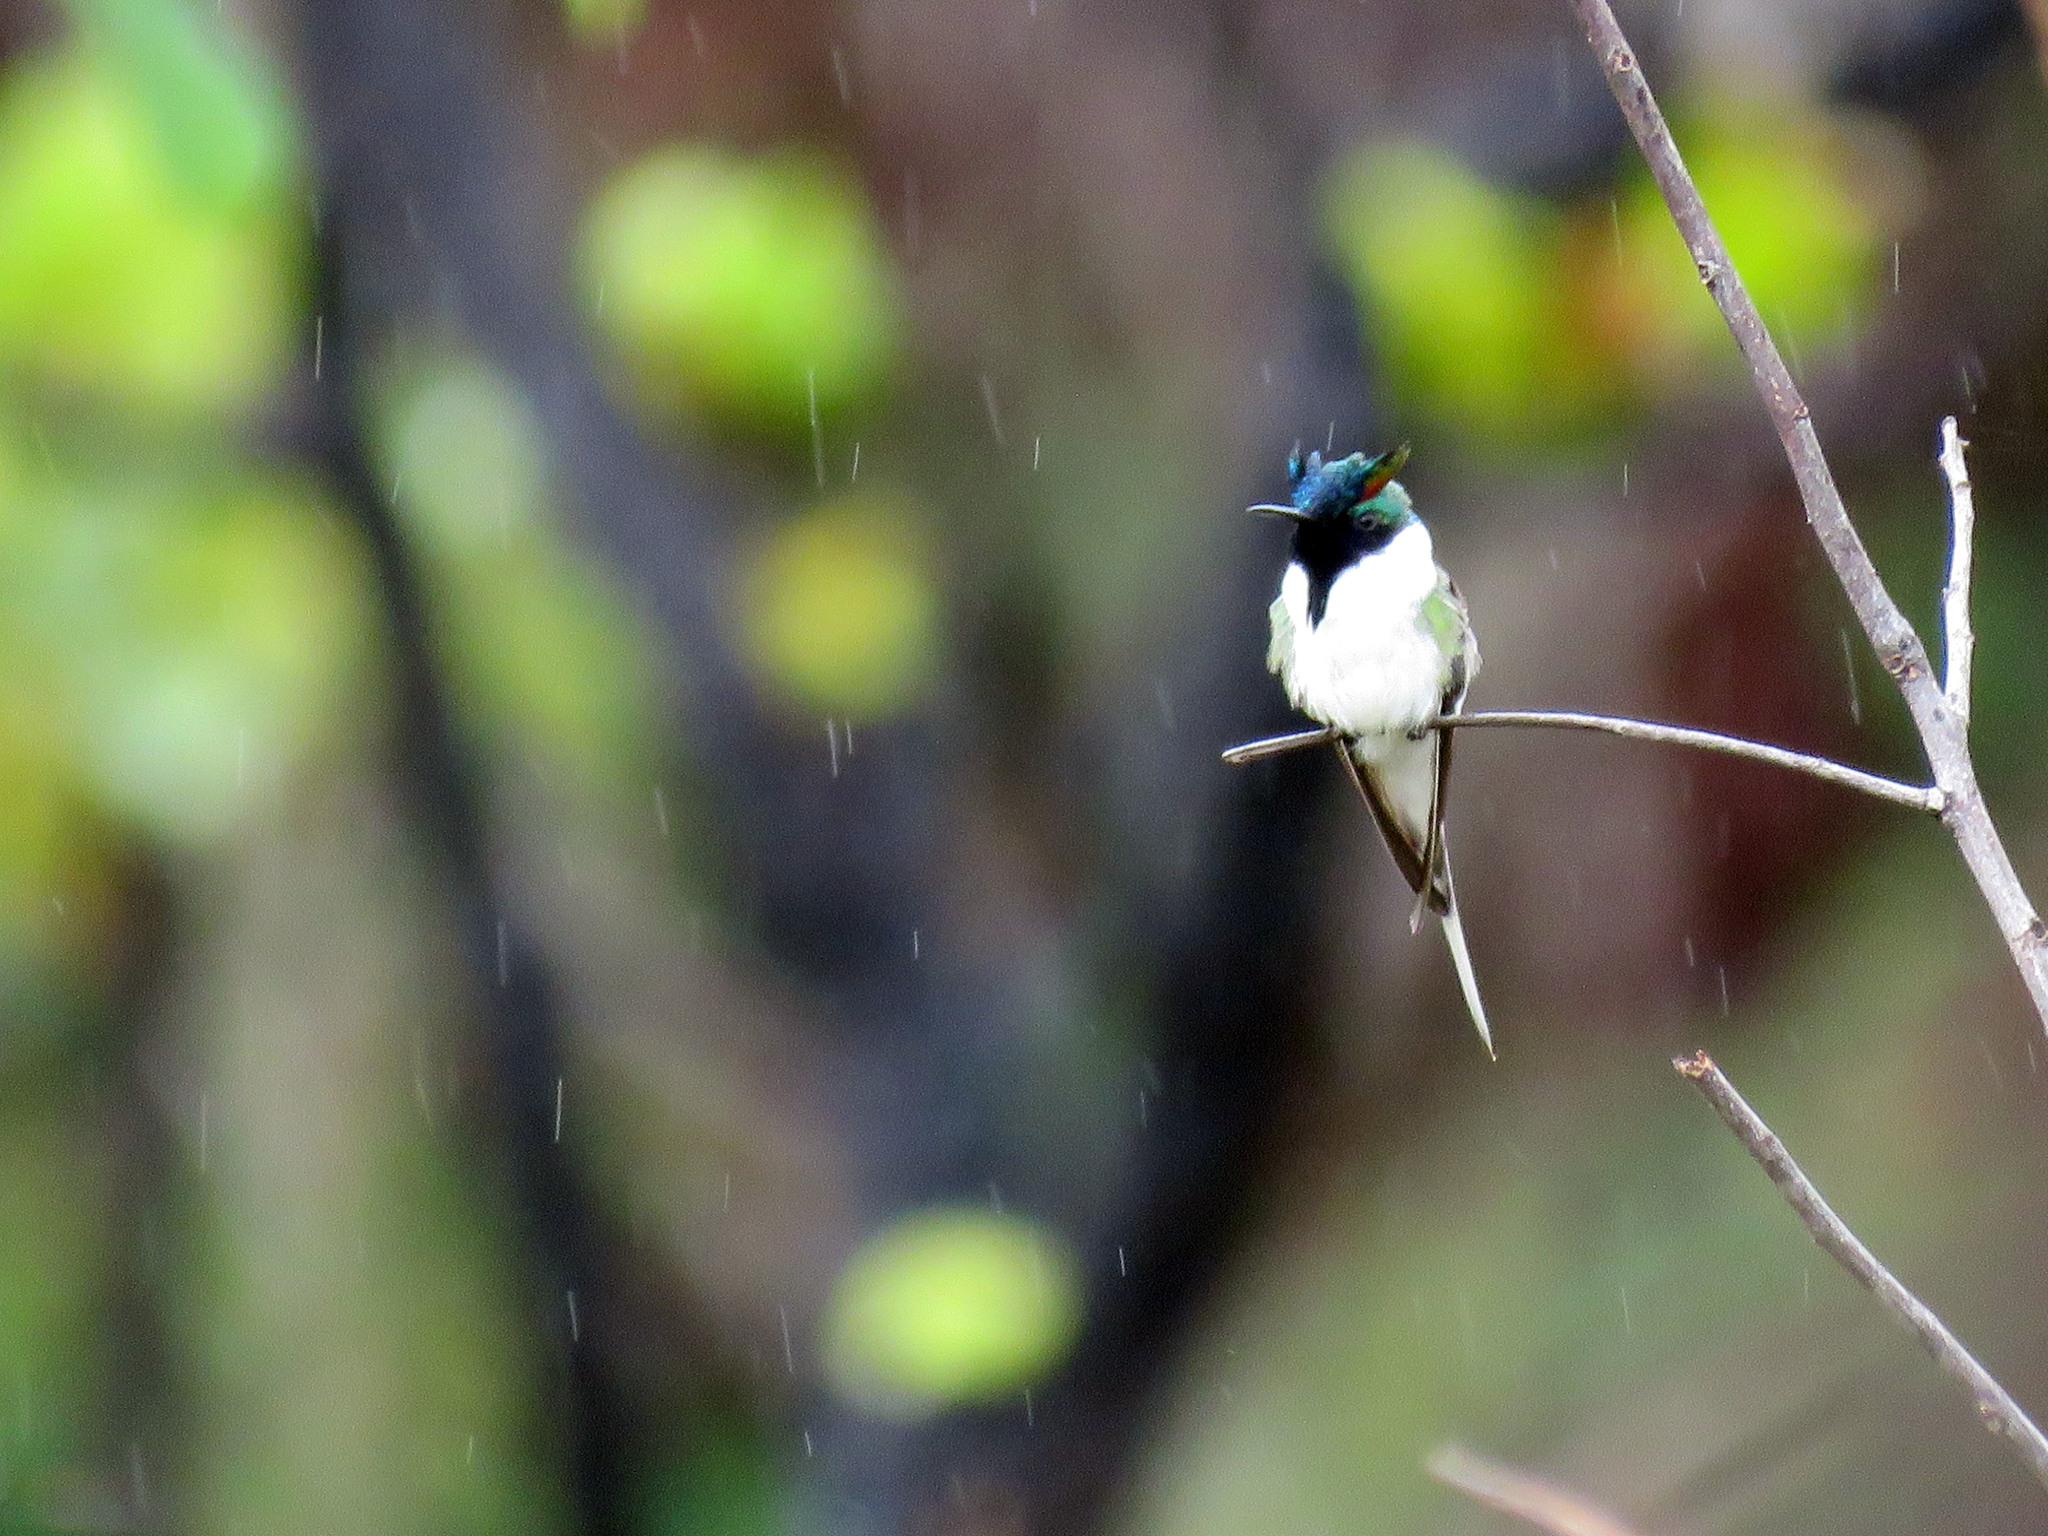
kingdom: Animalia
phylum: Chordata
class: Aves
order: Apodiformes
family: Trochilidae
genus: Heliactin
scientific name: Heliactin bilophus
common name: Horned sungem
